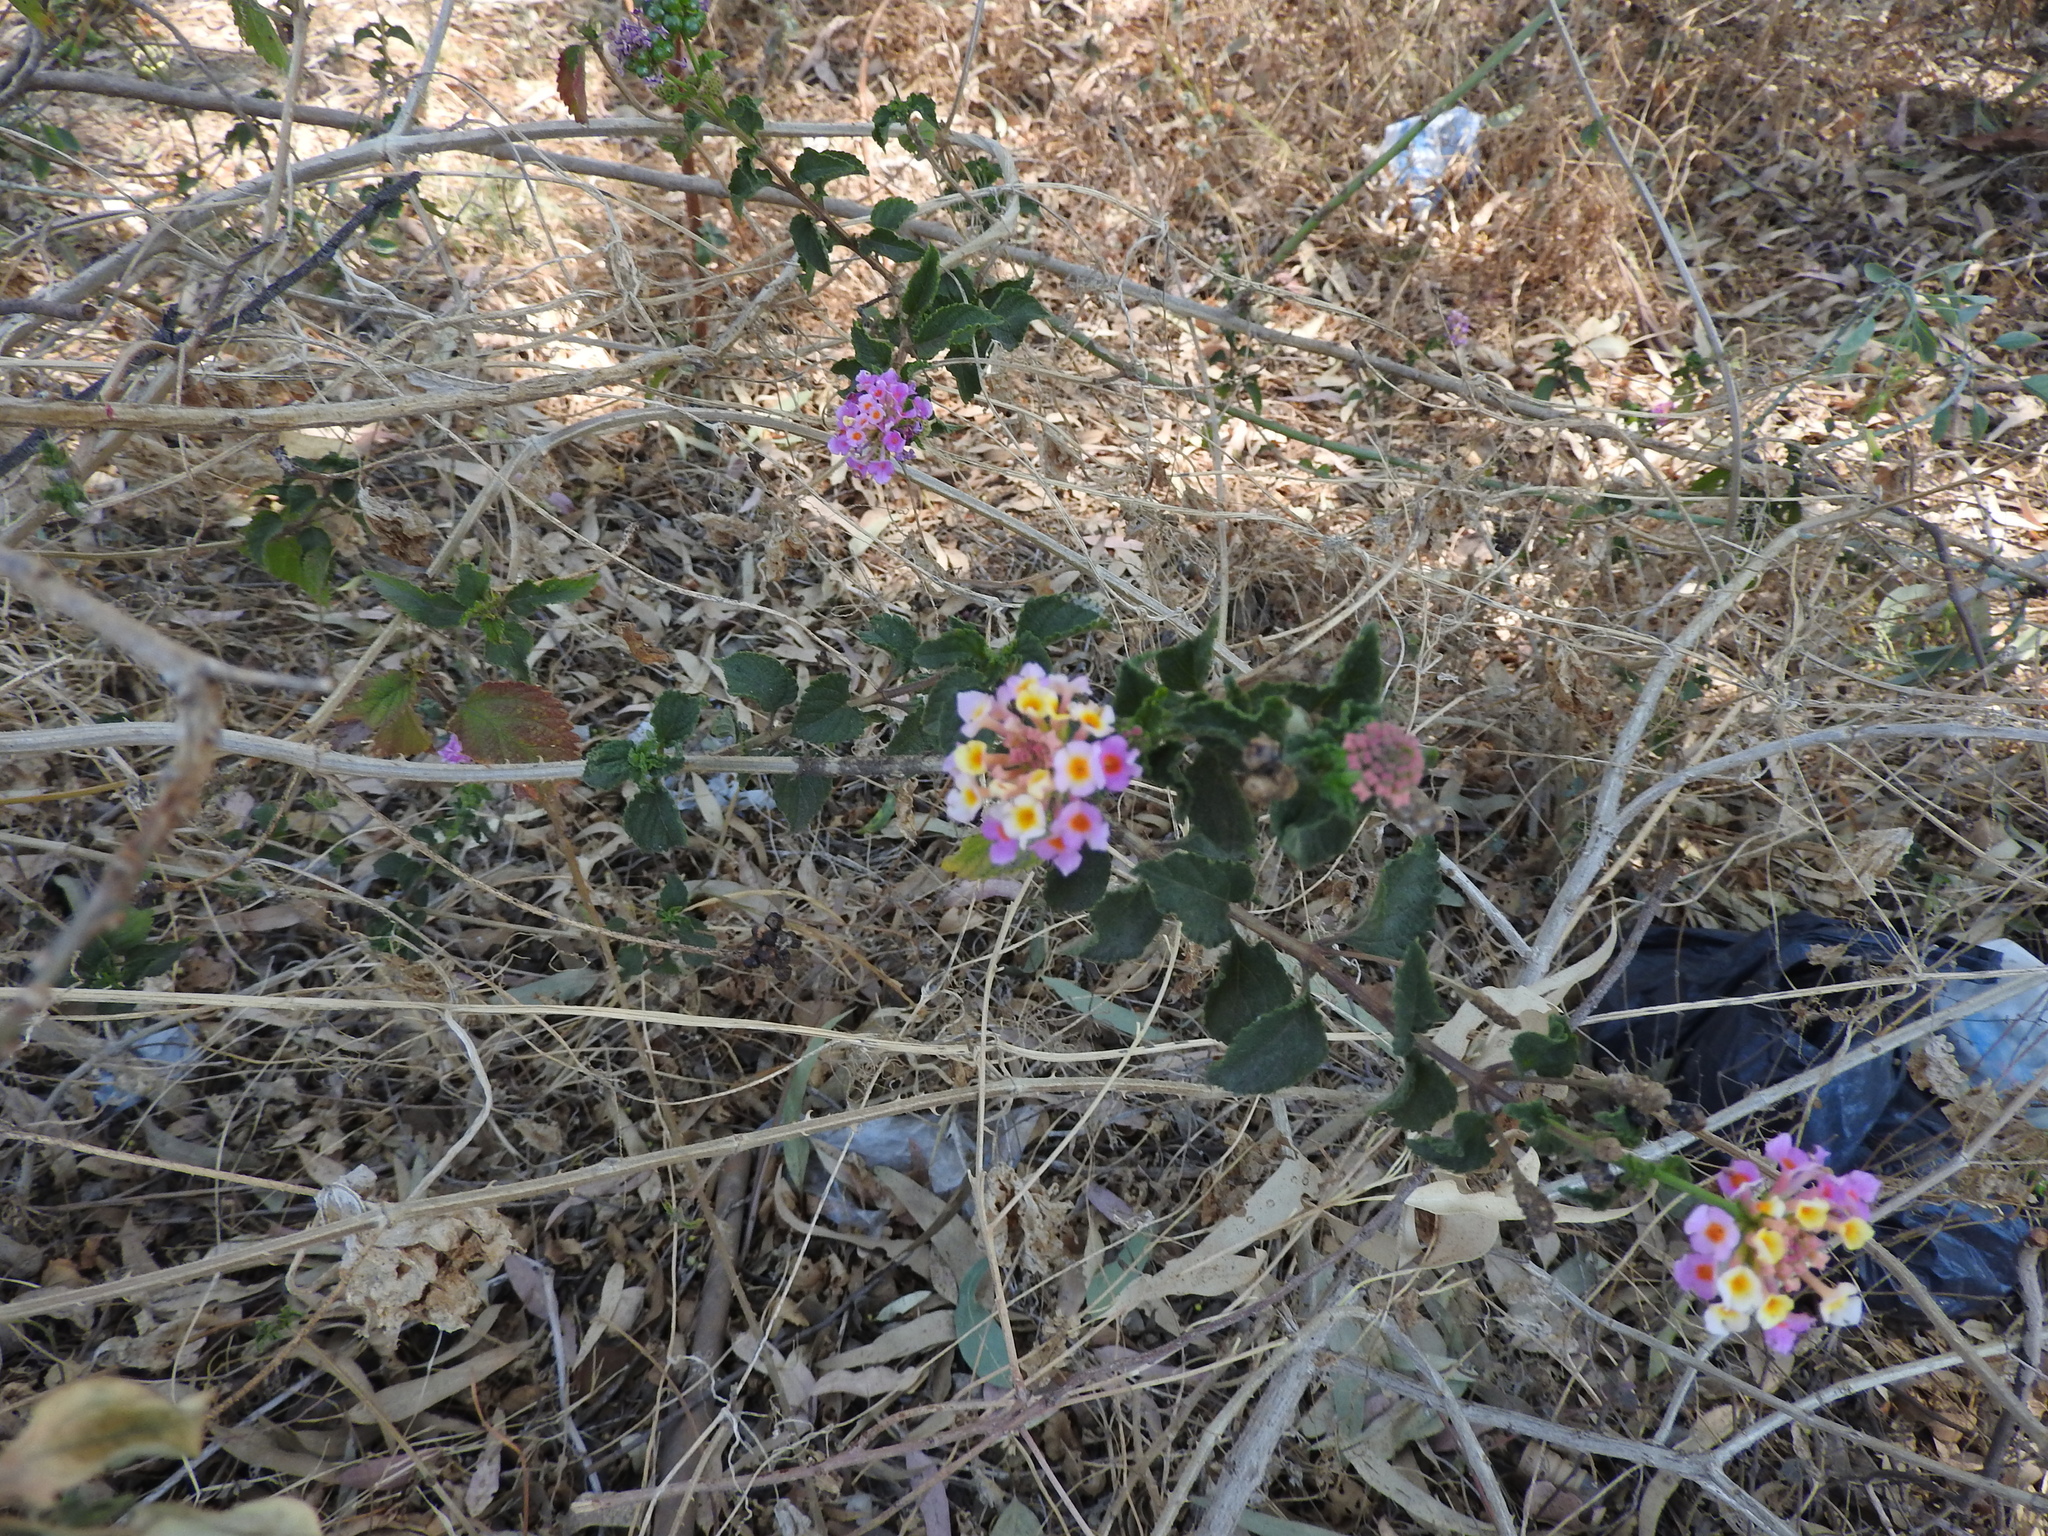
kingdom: Plantae
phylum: Tracheophyta
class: Magnoliopsida
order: Lamiales
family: Verbenaceae
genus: Lantana
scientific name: Lantana strigocamara
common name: Lantana
